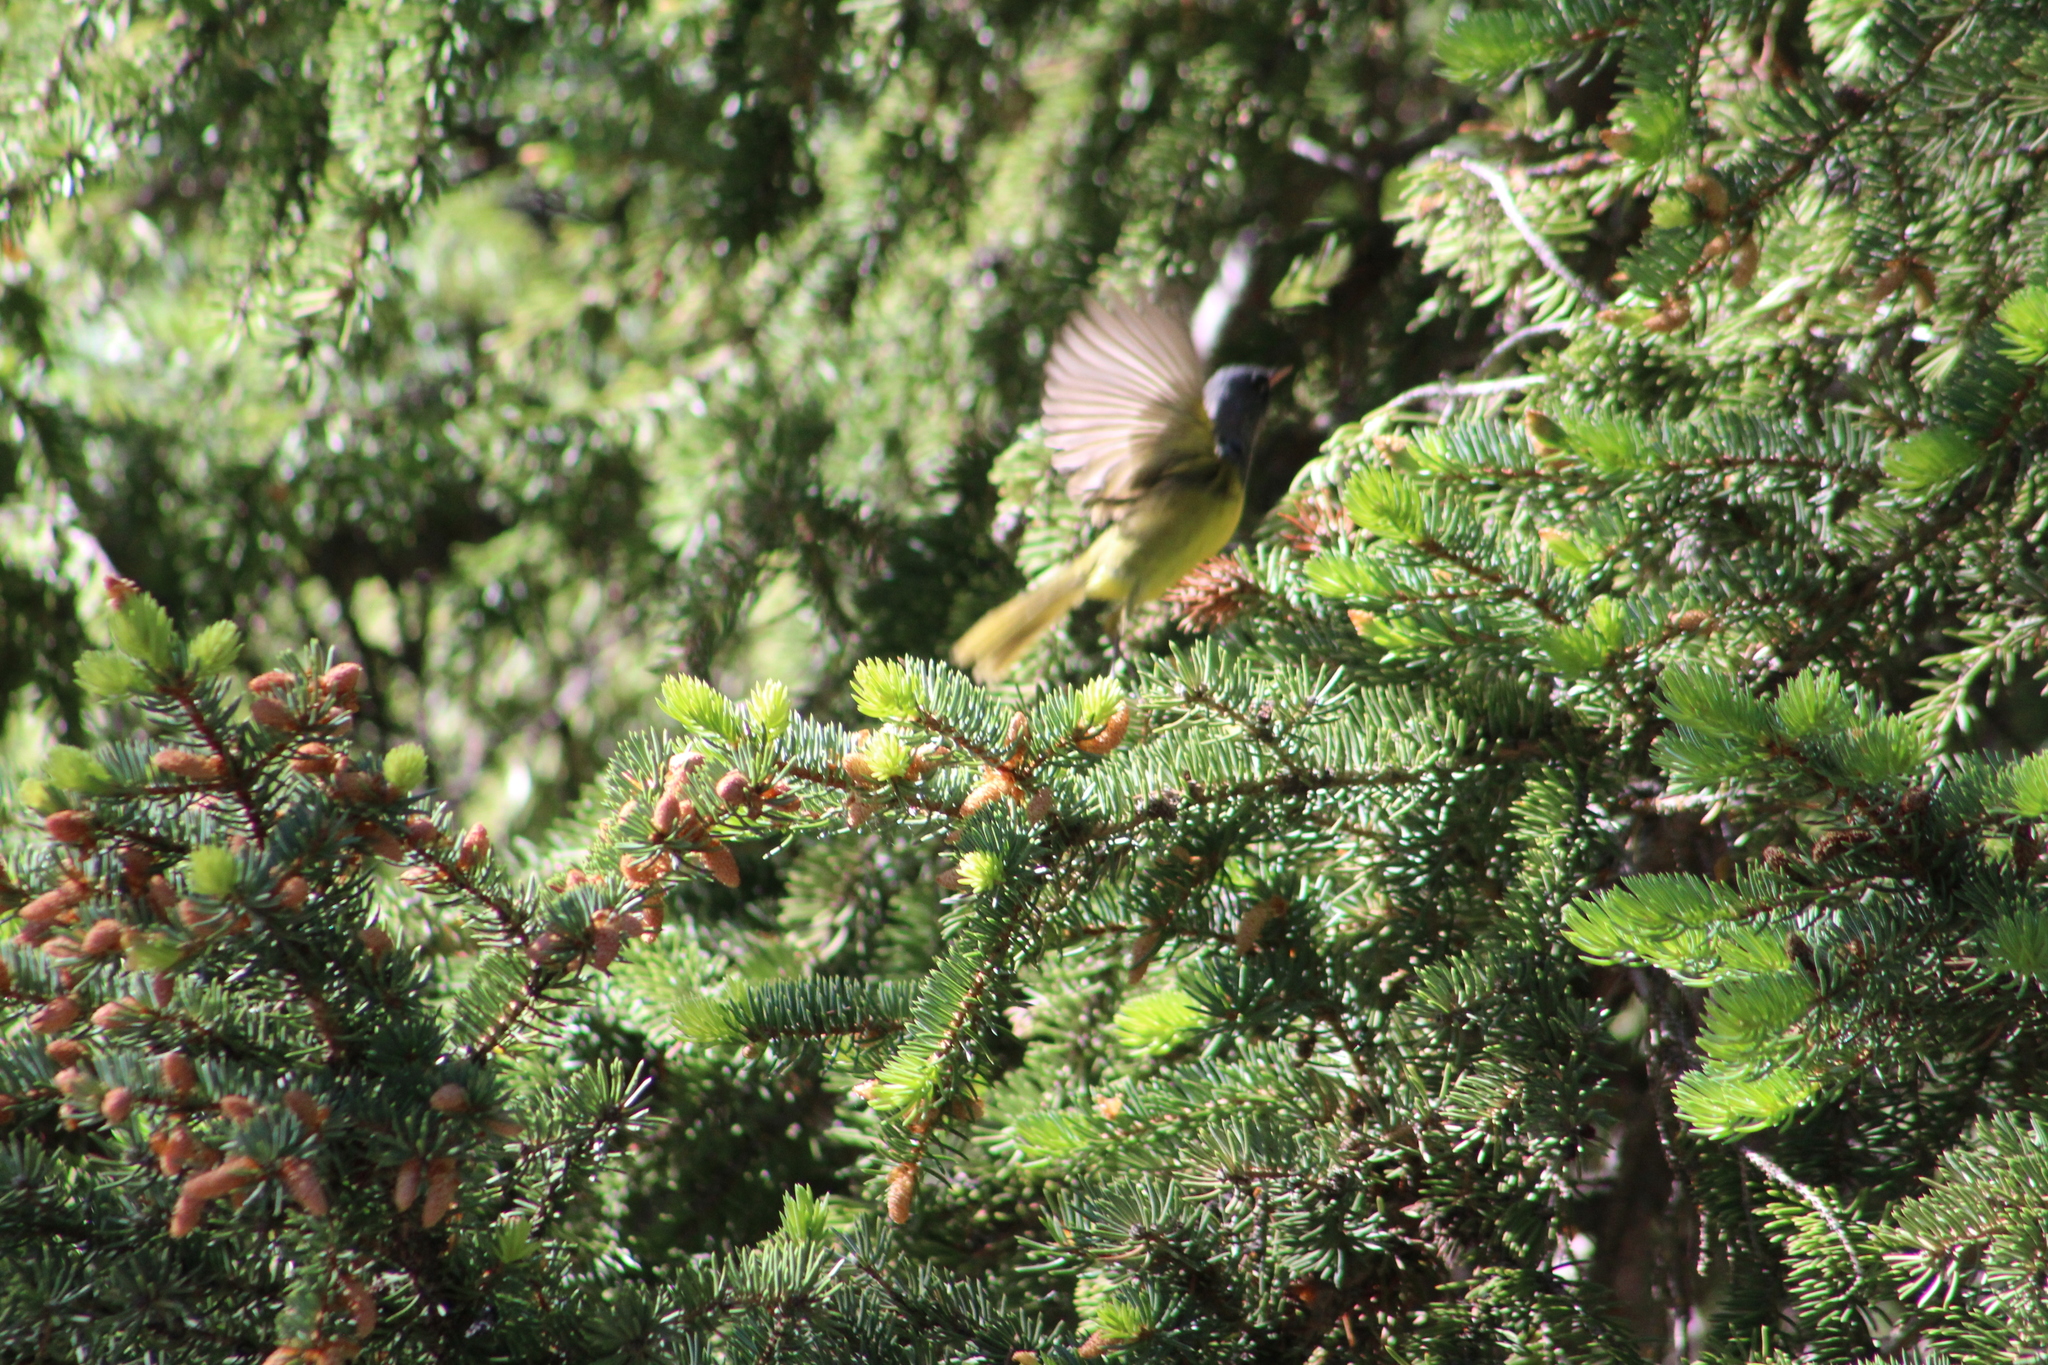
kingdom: Animalia
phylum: Chordata
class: Aves
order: Passeriformes
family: Parulidae
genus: Geothlypis
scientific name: Geothlypis tolmiei
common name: Macgillivray's warbler
